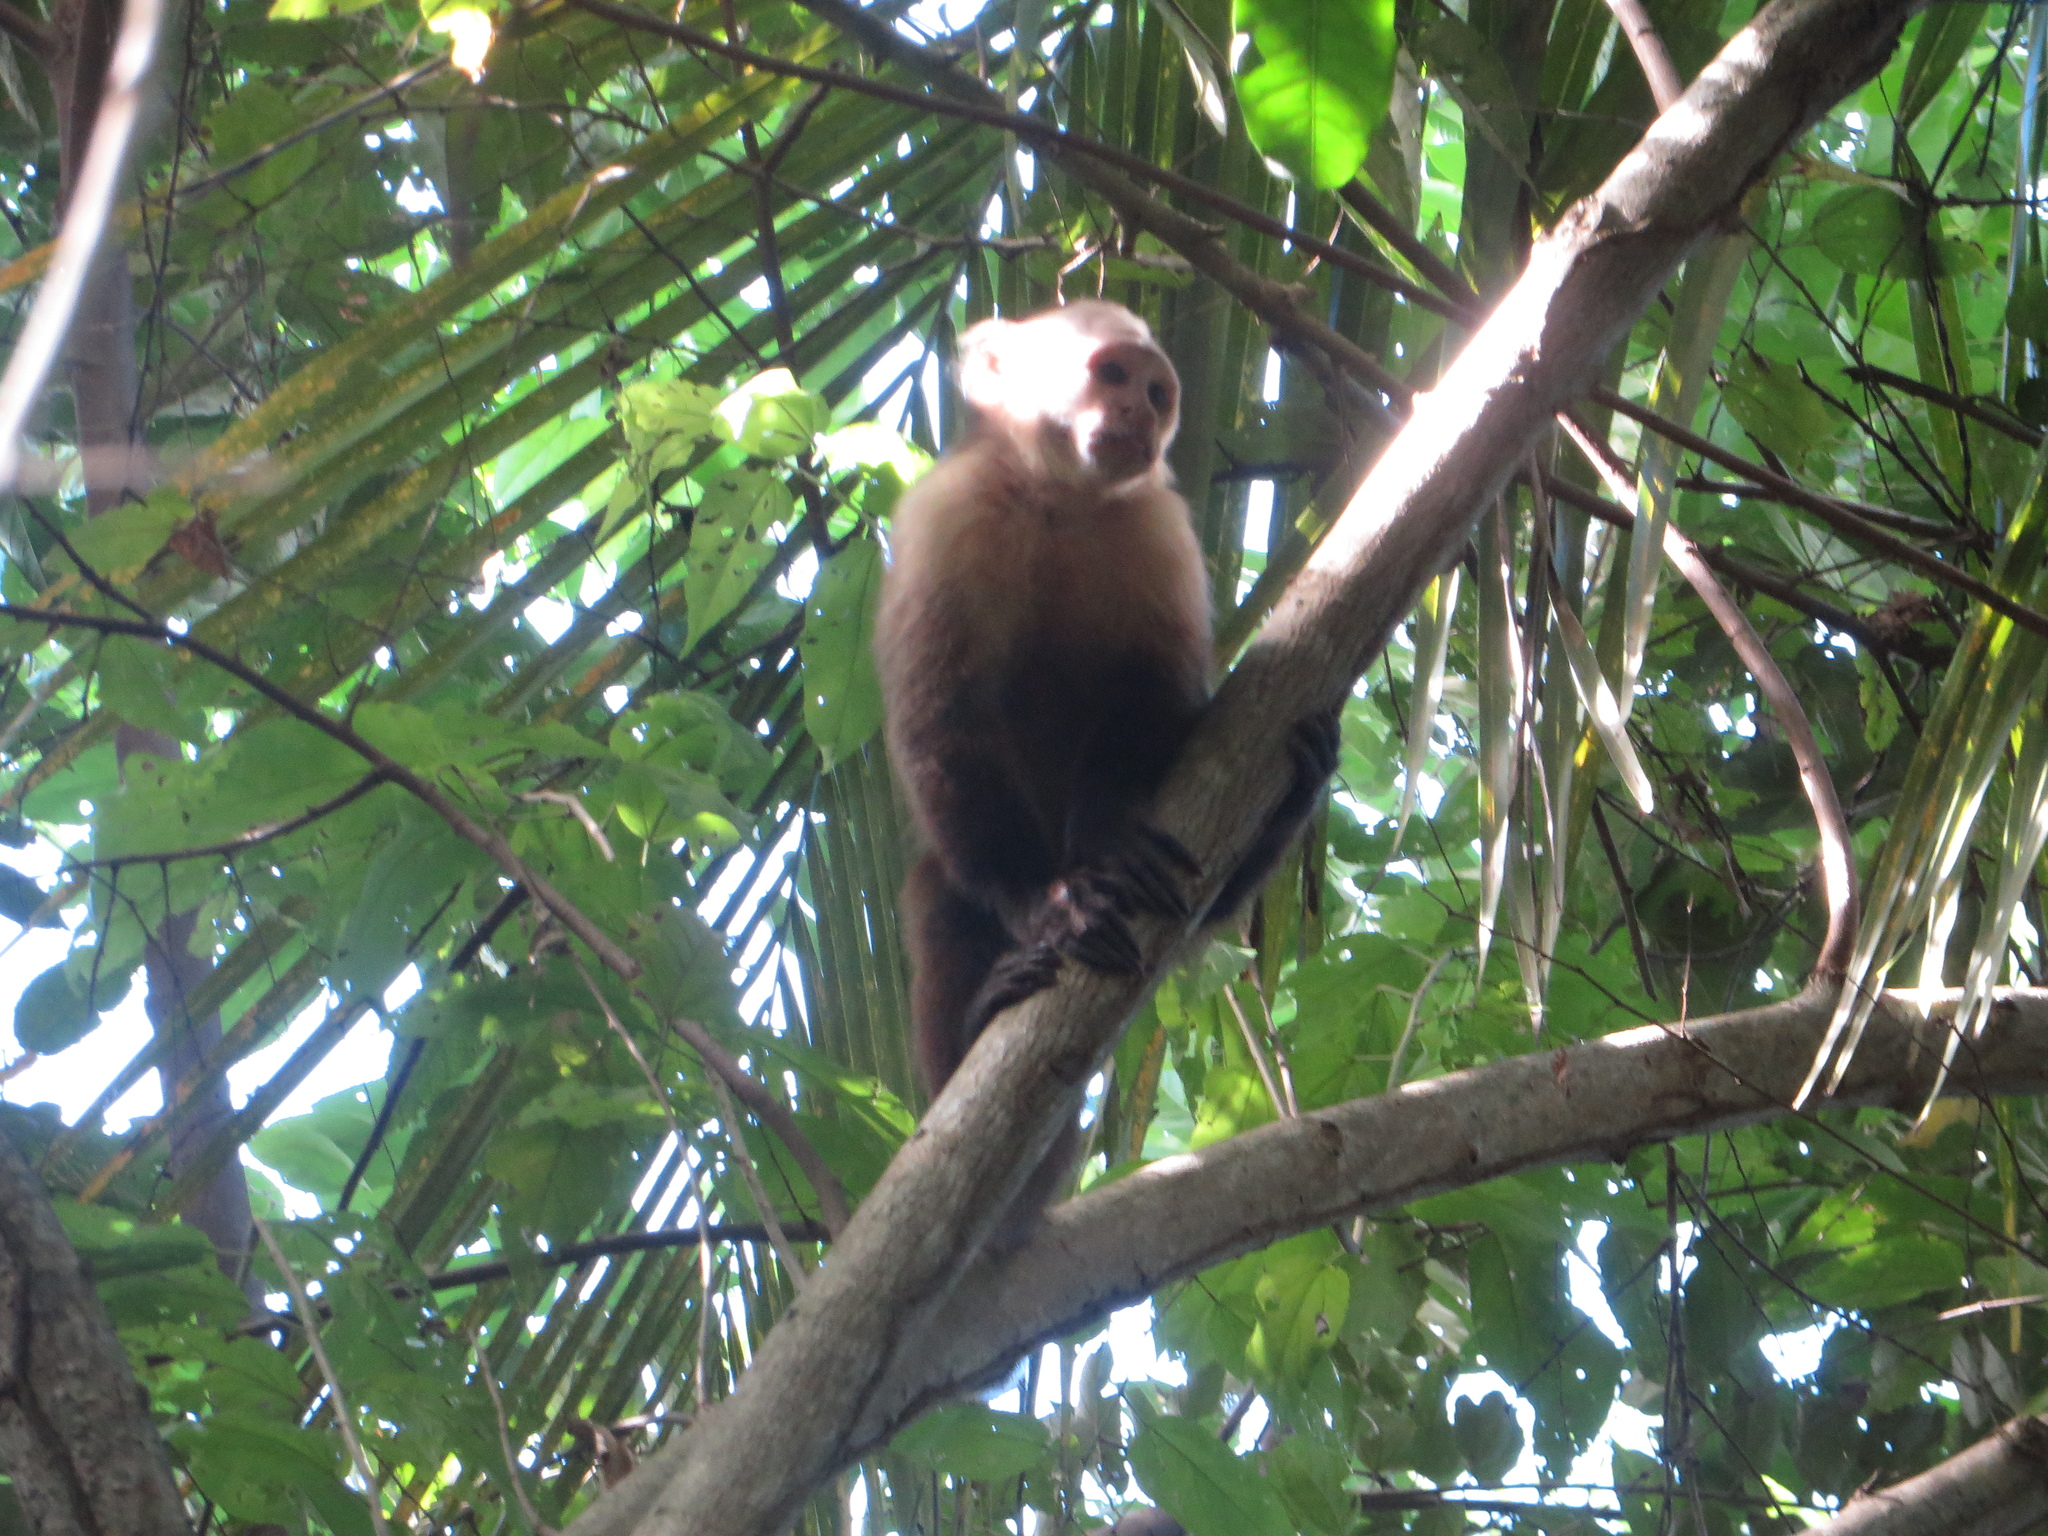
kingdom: Animalia
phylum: Chordata
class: Mammalia
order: Primates
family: Cebidae
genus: Cebus
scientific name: Cebus malitiosus
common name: Santa marta white-fronted capuchin
